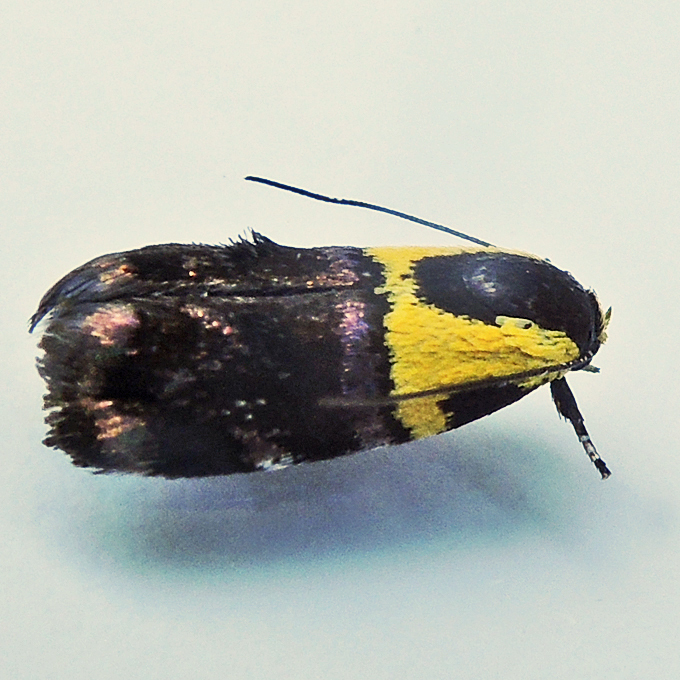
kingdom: Animalia
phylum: Arthropoda
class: Insecta
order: Lepidoptera
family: Depressariidae
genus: Rectiostoma
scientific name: Rectiostoma xanthobasis
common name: Yellow-vested moth
